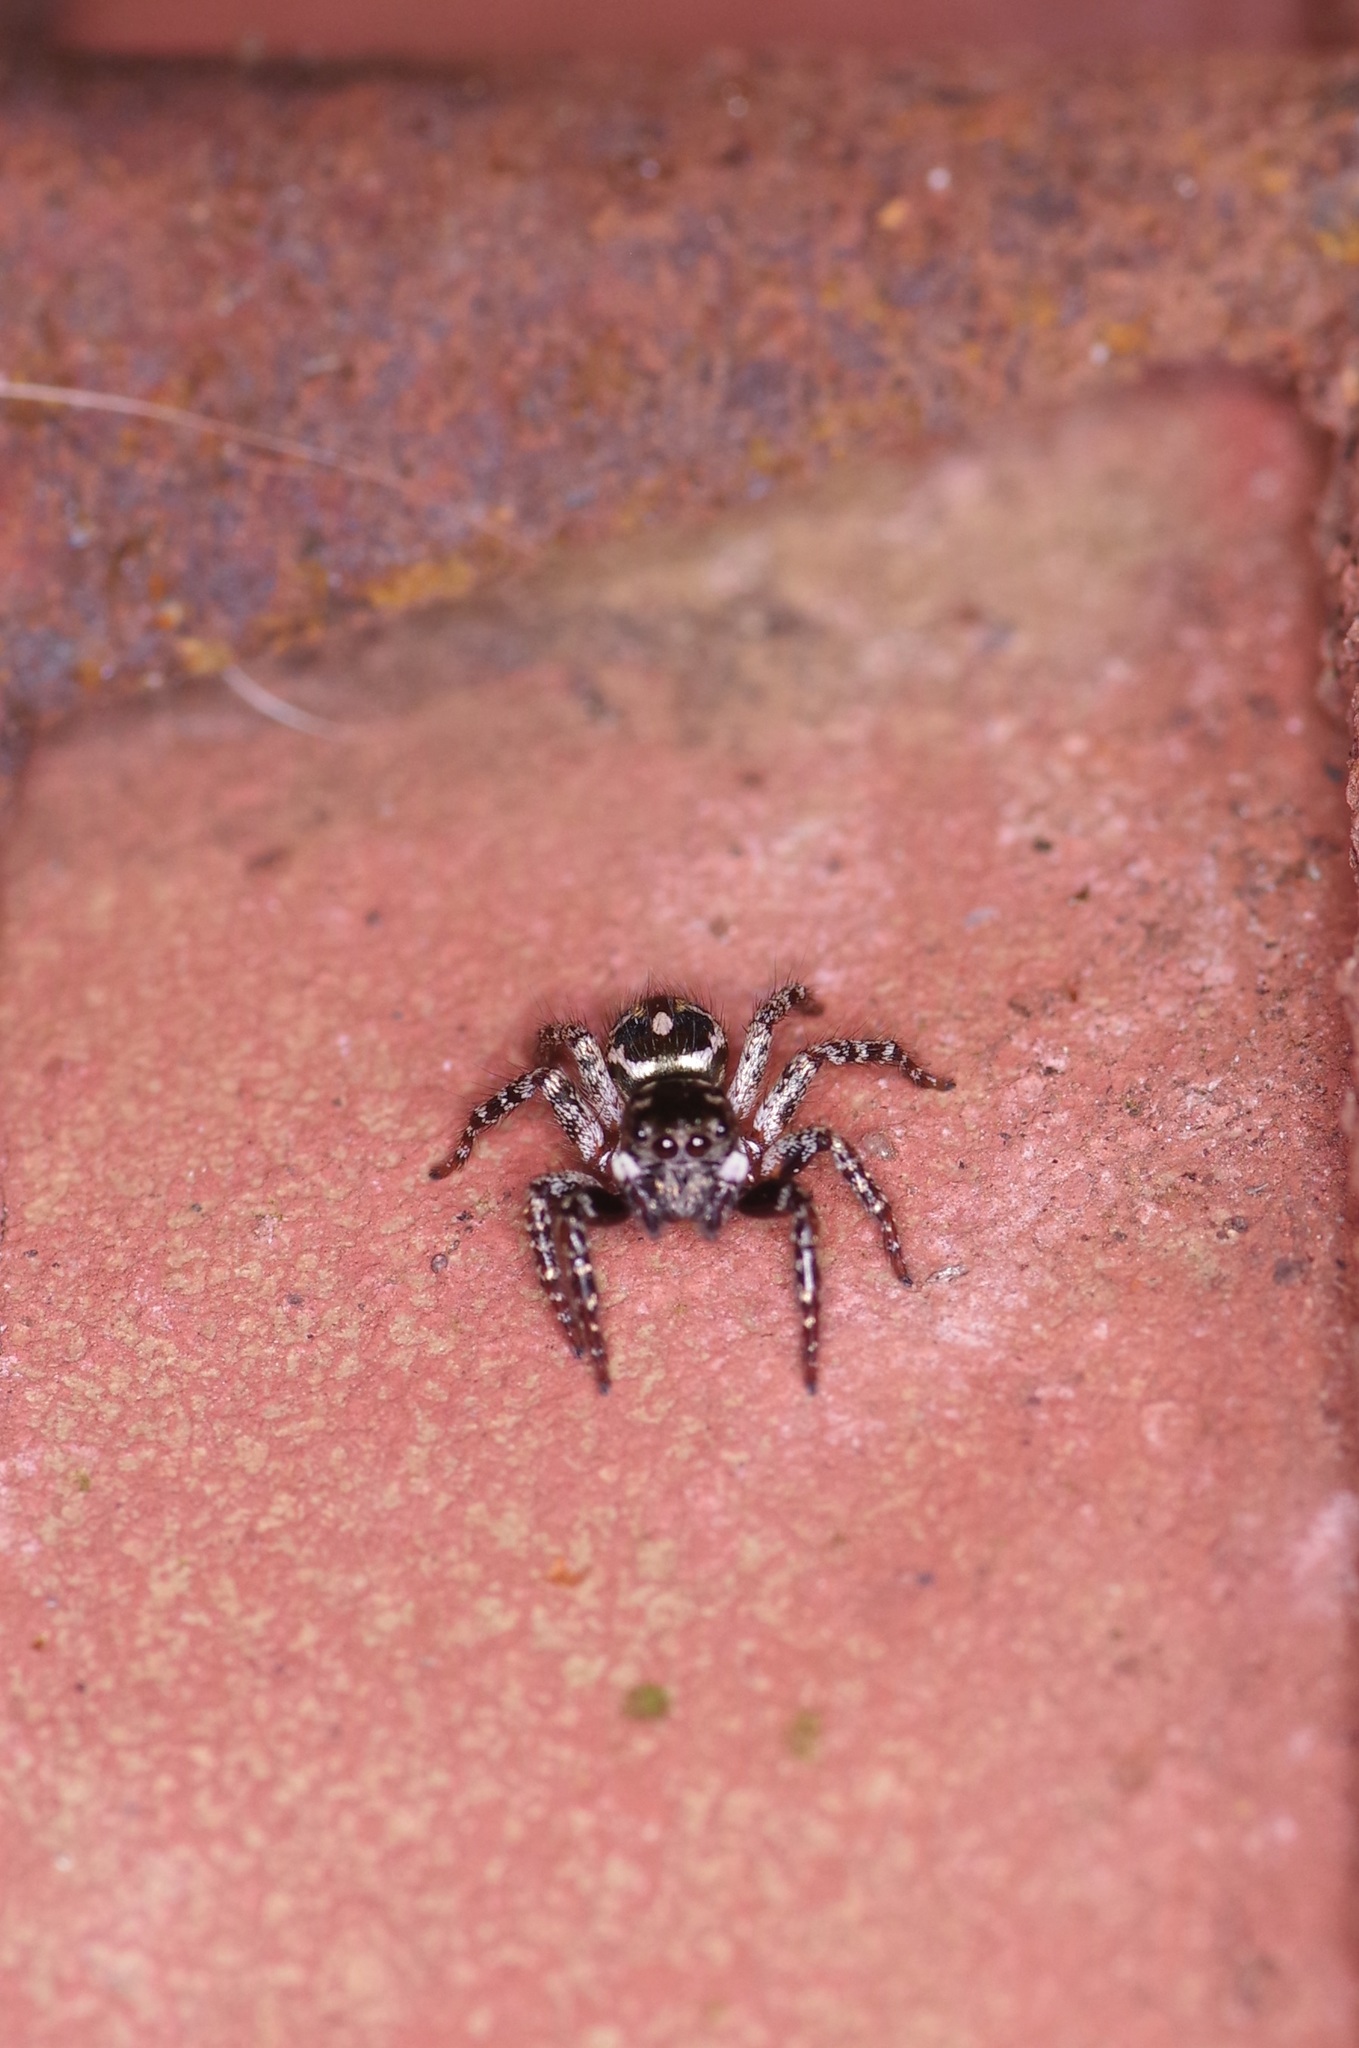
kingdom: Animalia
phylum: Arthropoda
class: Arachnida
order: Araneae
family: Salticidae
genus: Anasaitis
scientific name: Anasaitis canosa
